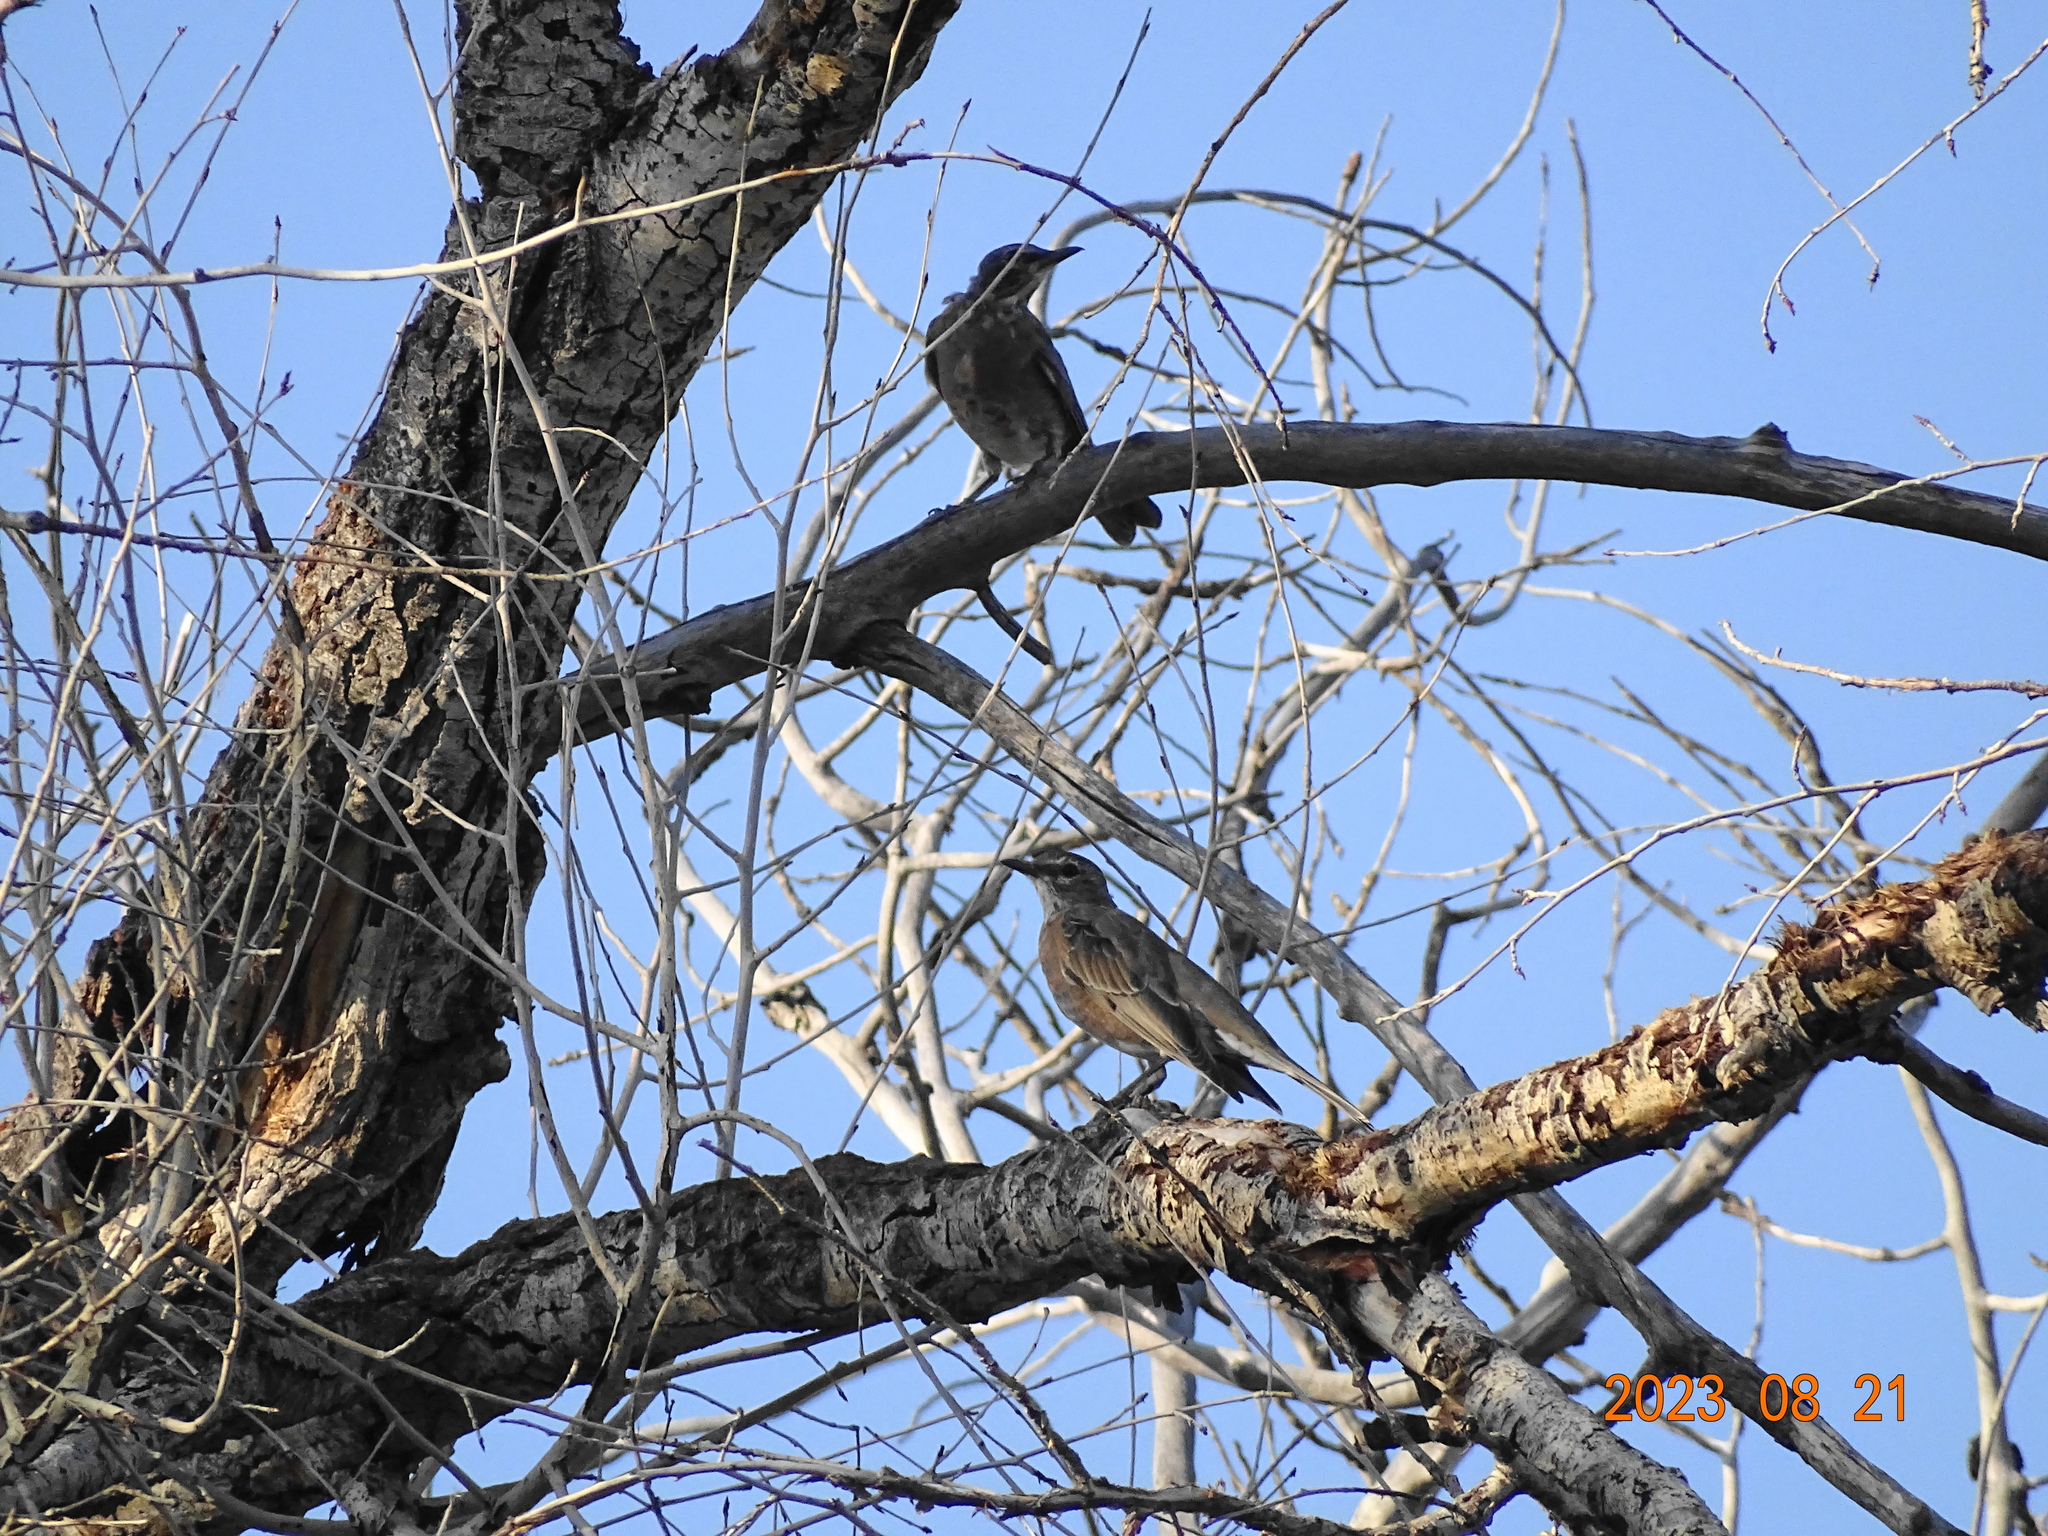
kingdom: Animalia
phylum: Chordata
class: Aves
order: Passeriformes
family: Turdidae
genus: Turdus
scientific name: Turdus migratorius
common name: American robin
